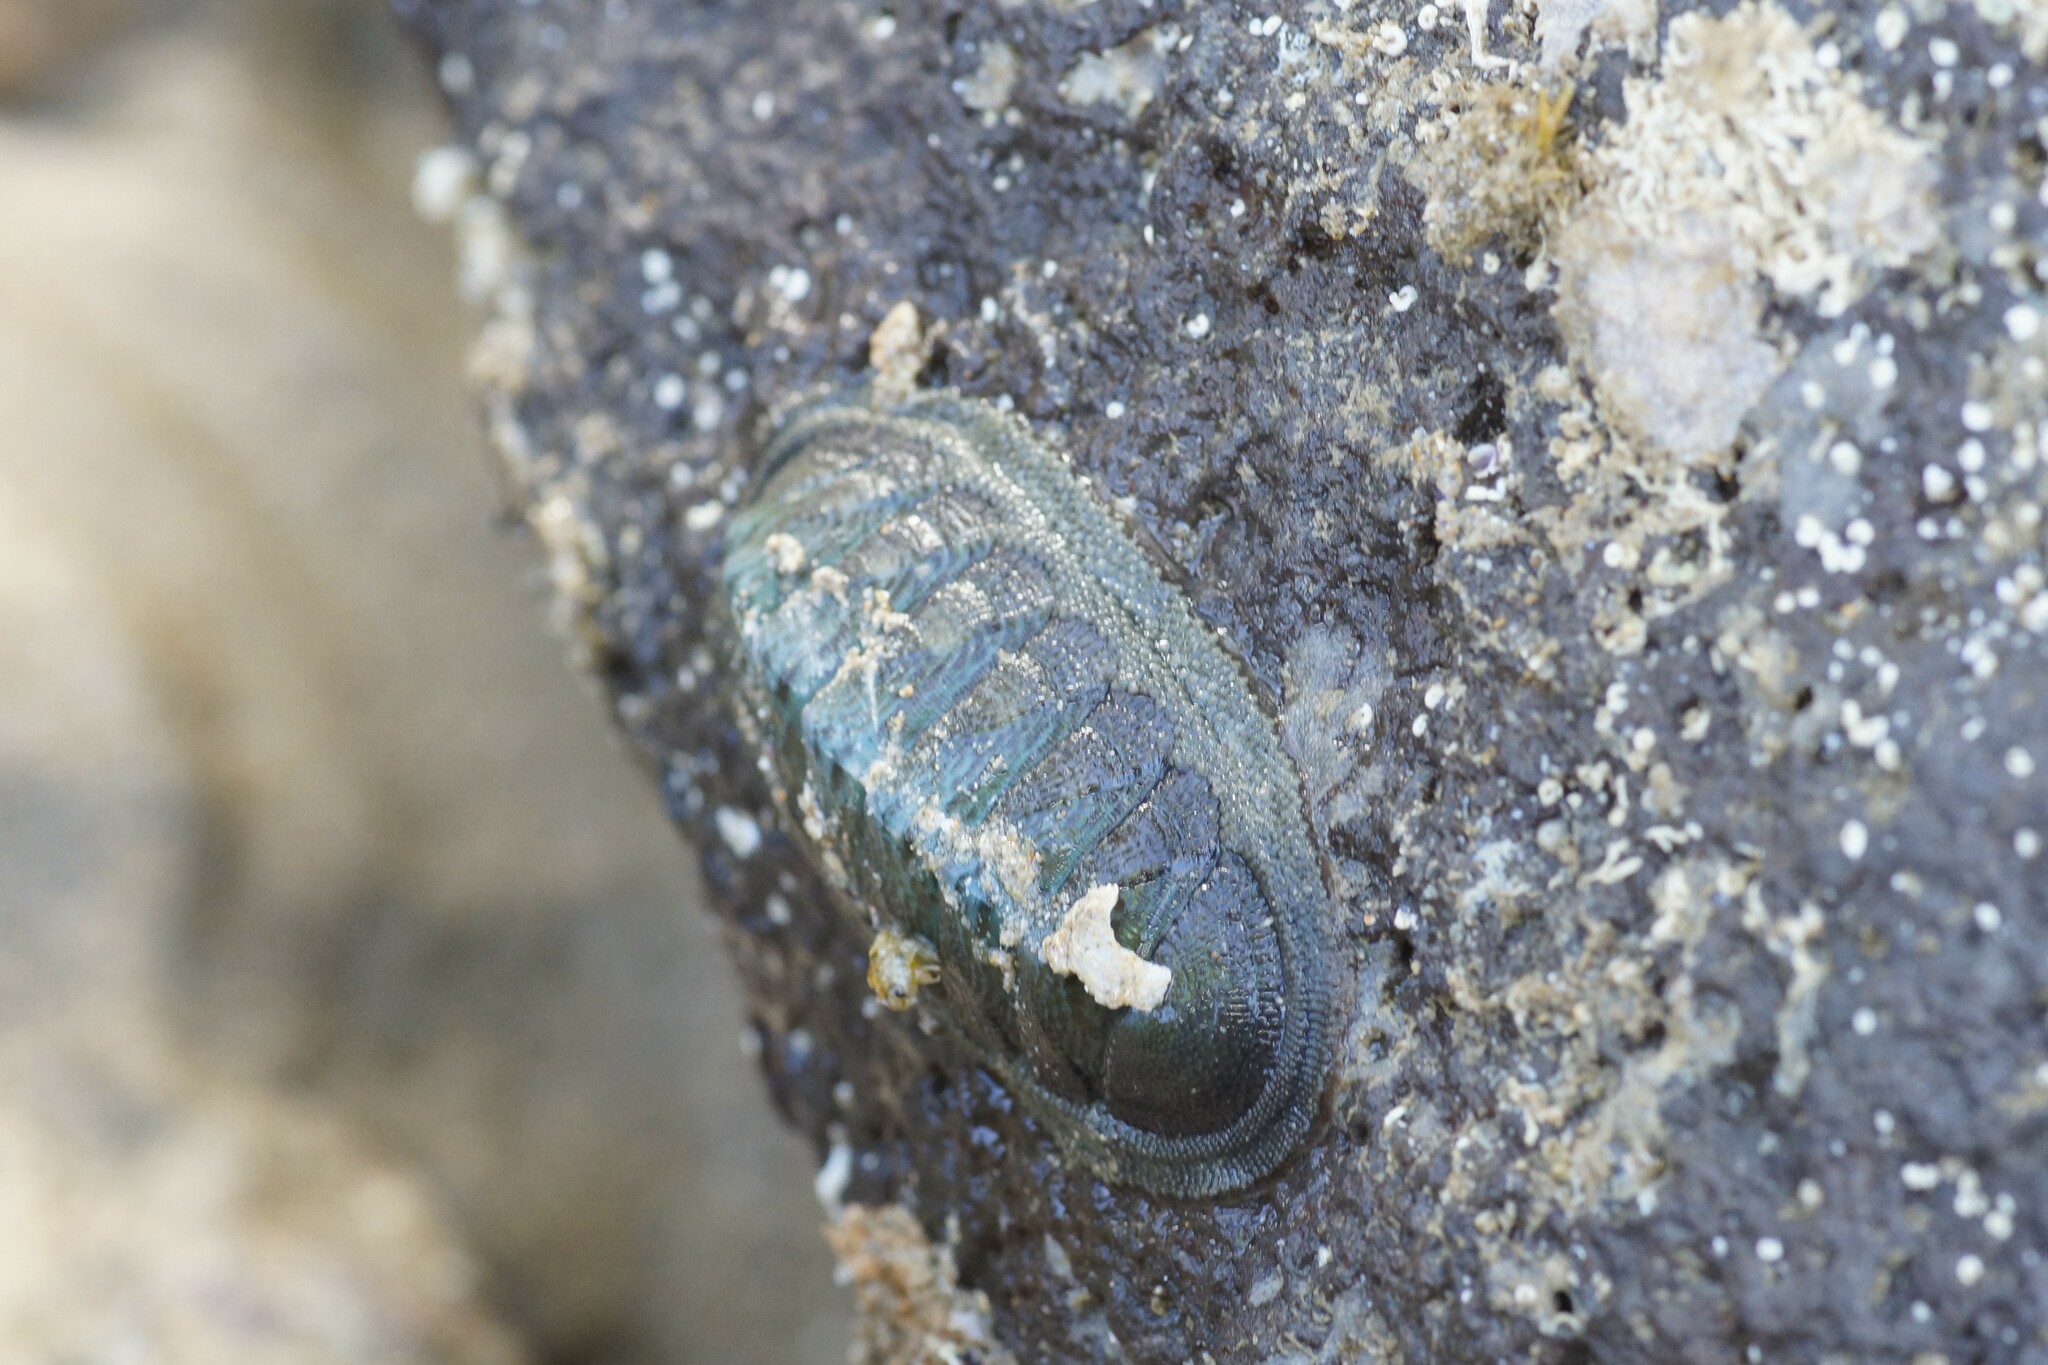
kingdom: Animalia
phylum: Mollusca
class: Polyplacophora
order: Chitonida
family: Ischnochitonidae
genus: Ischnochiton
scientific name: Ischnochiton australis
